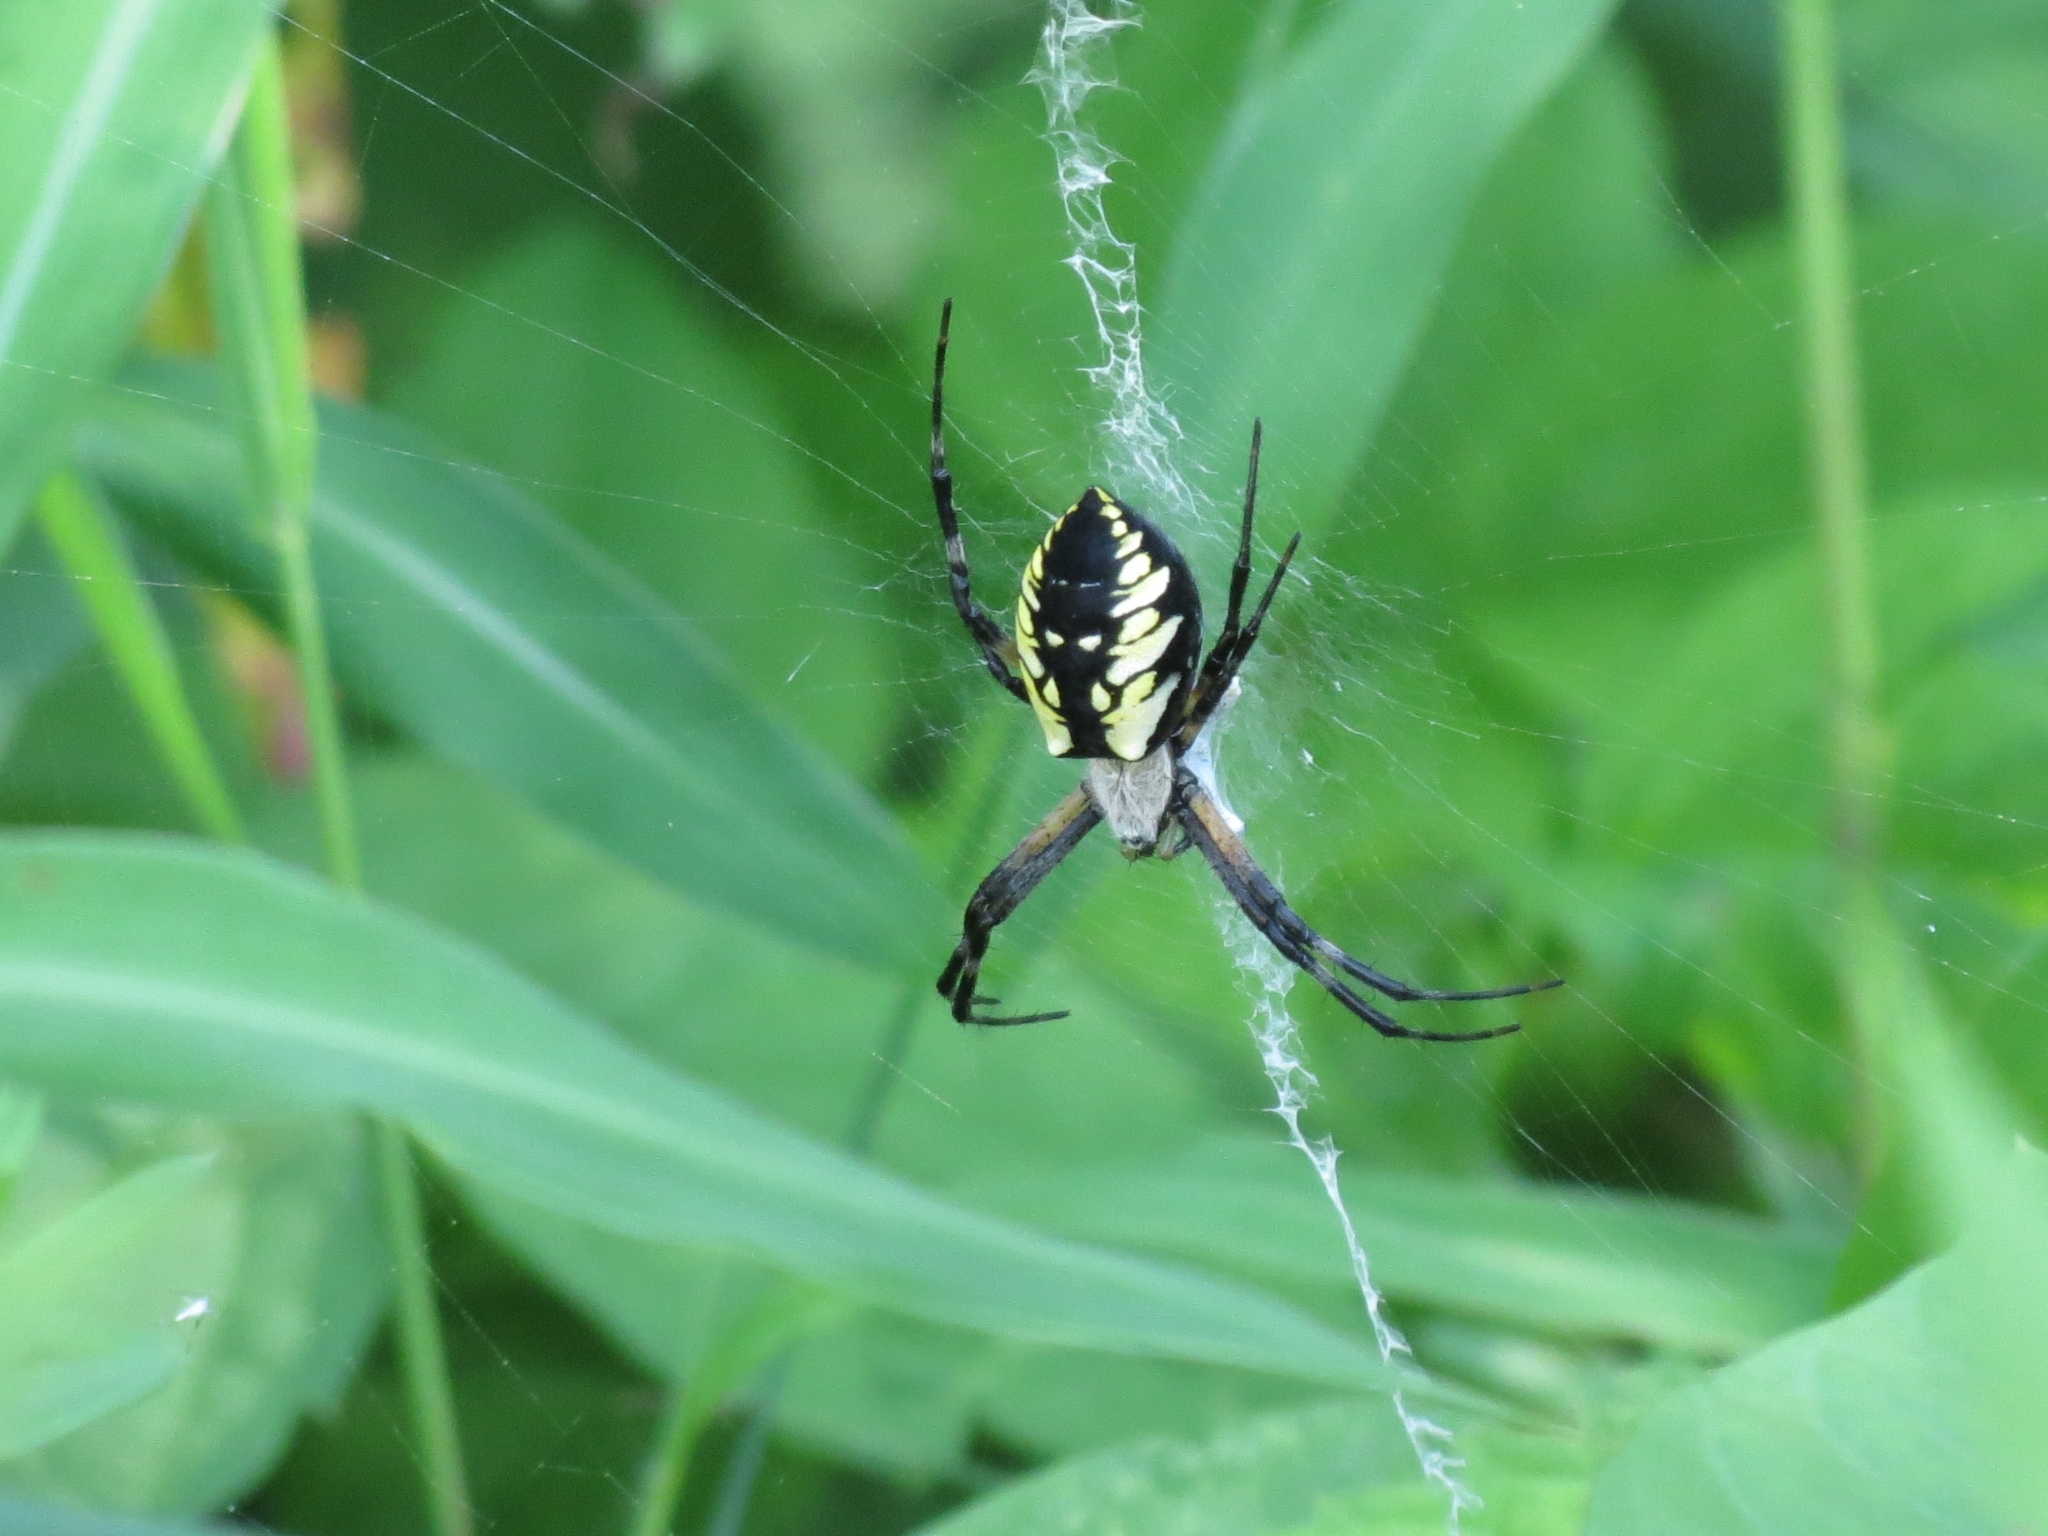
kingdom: Animalia
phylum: Arthropoda
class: Arachnida
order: Araneae
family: Araneidae
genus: Argiope
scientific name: Argiope aurantia
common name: Orb weavers
